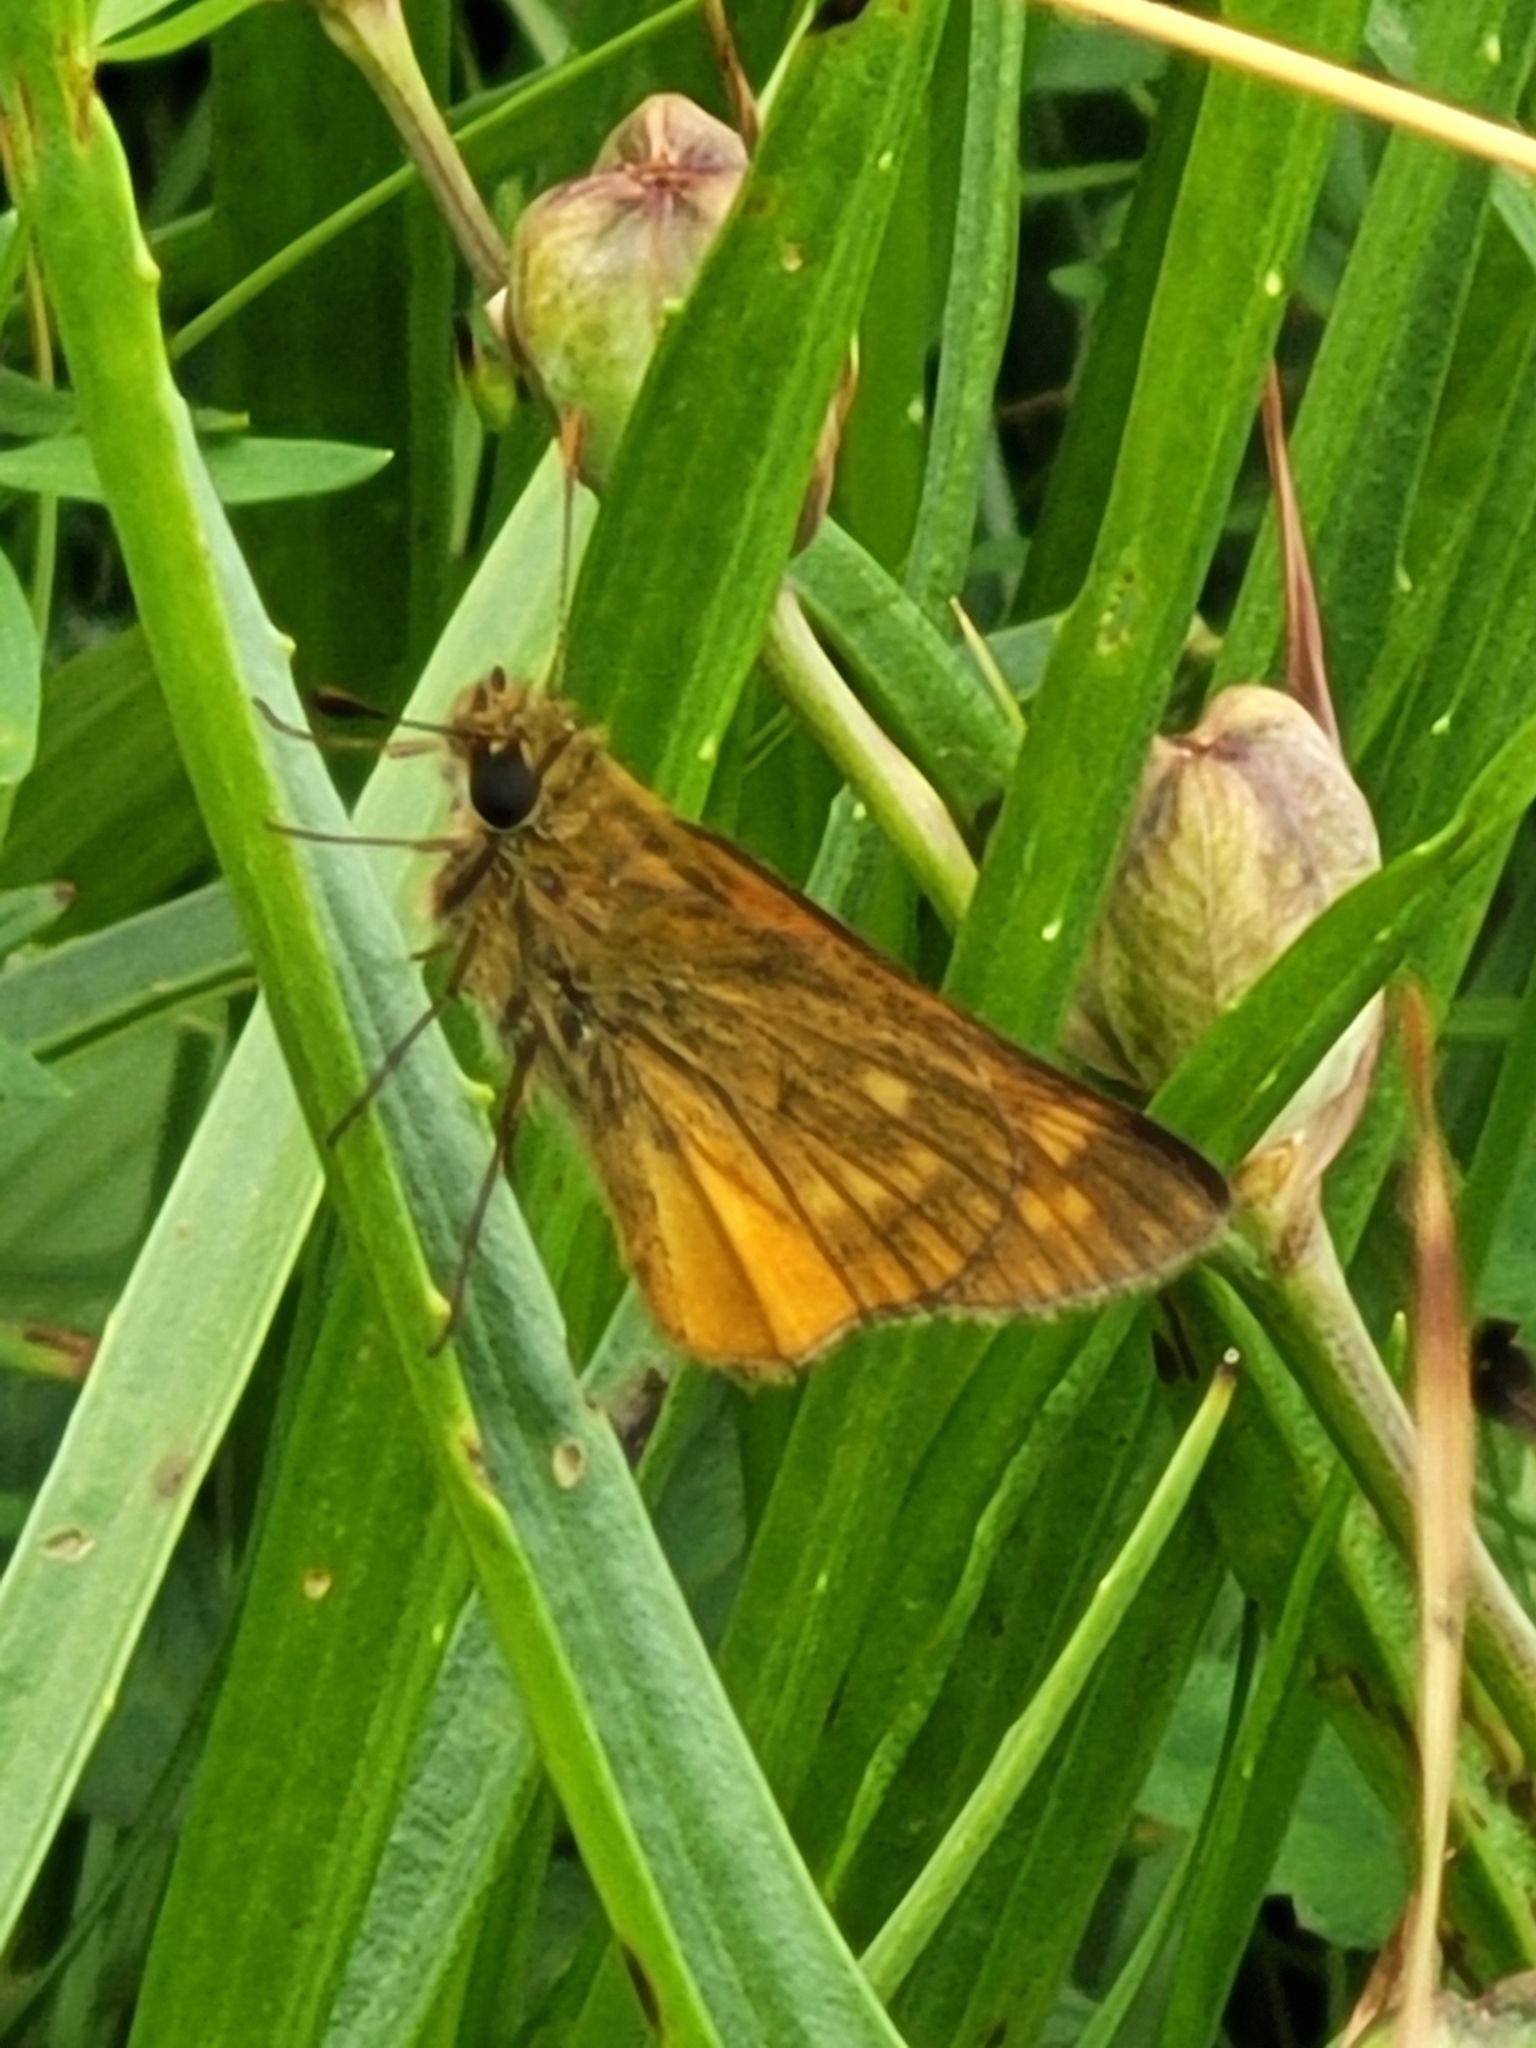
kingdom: Animalia
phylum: Arthropoda
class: Insecta
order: Lepidoptera
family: Hesperiidae
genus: Ochlodes
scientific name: Ochlodes venata
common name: Large skipper
